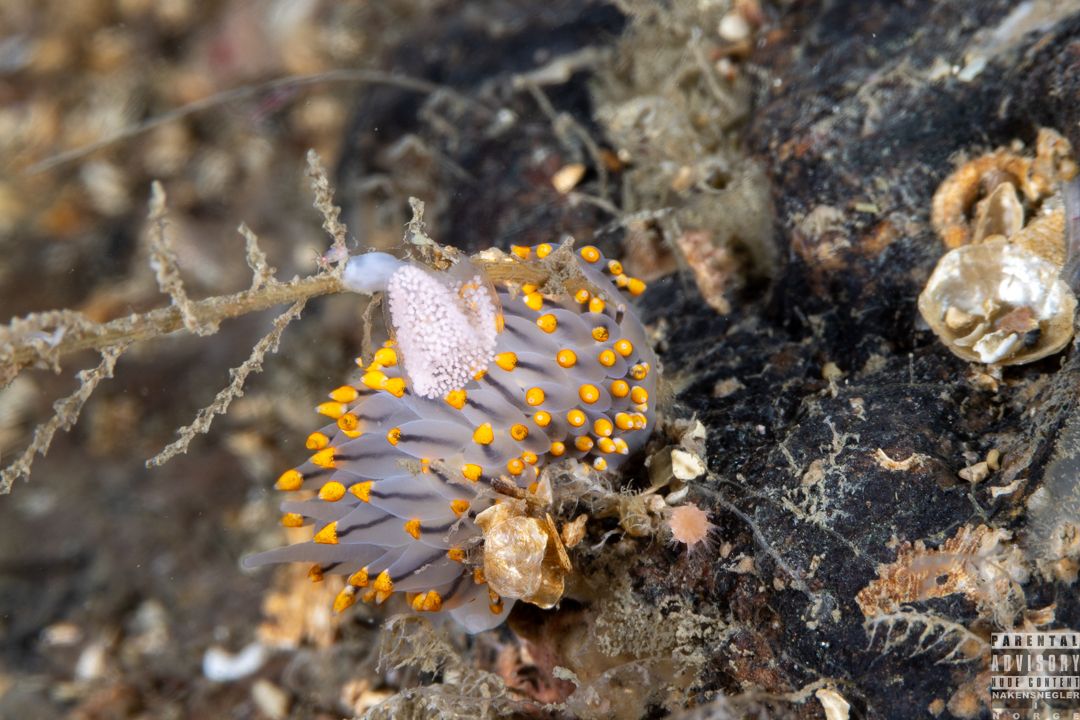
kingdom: Animalia
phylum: Mollusca
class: Gastropoda
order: Nudibranchia
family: Eubranchidae
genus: Eubranchus
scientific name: Eubranchus tricolor
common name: Painted balloon aeolis
